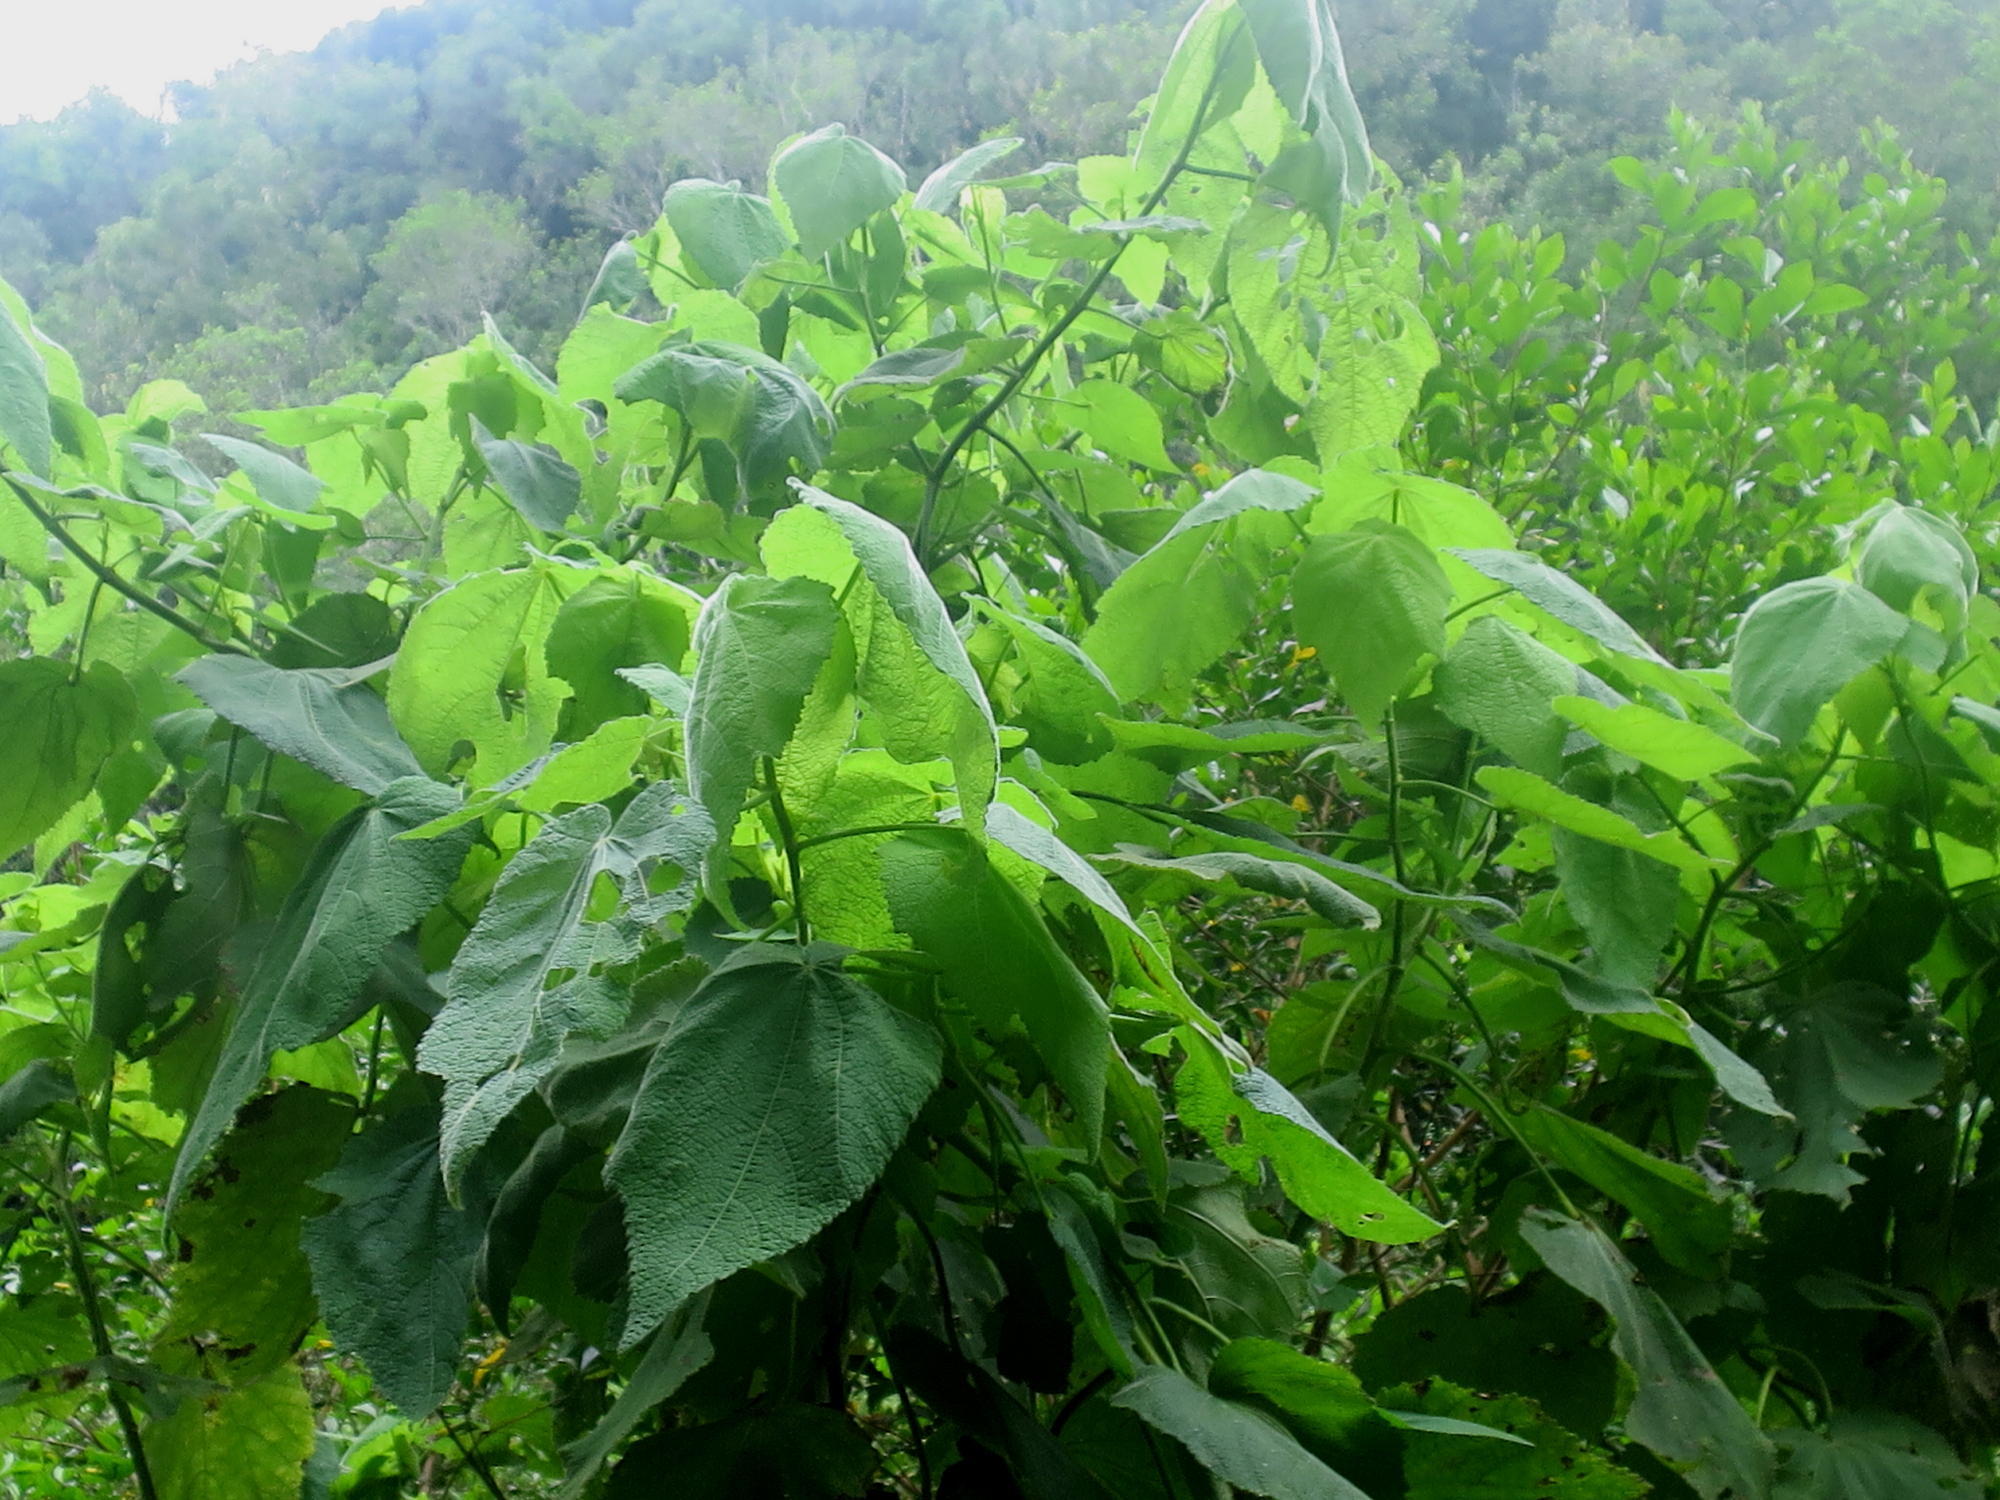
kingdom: Plantae
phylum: Tracheophyta
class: Magnoliopsida
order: Malvales
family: Malvaceae
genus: Sparrmannia
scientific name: Sparrmannia africana
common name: African-hemp
